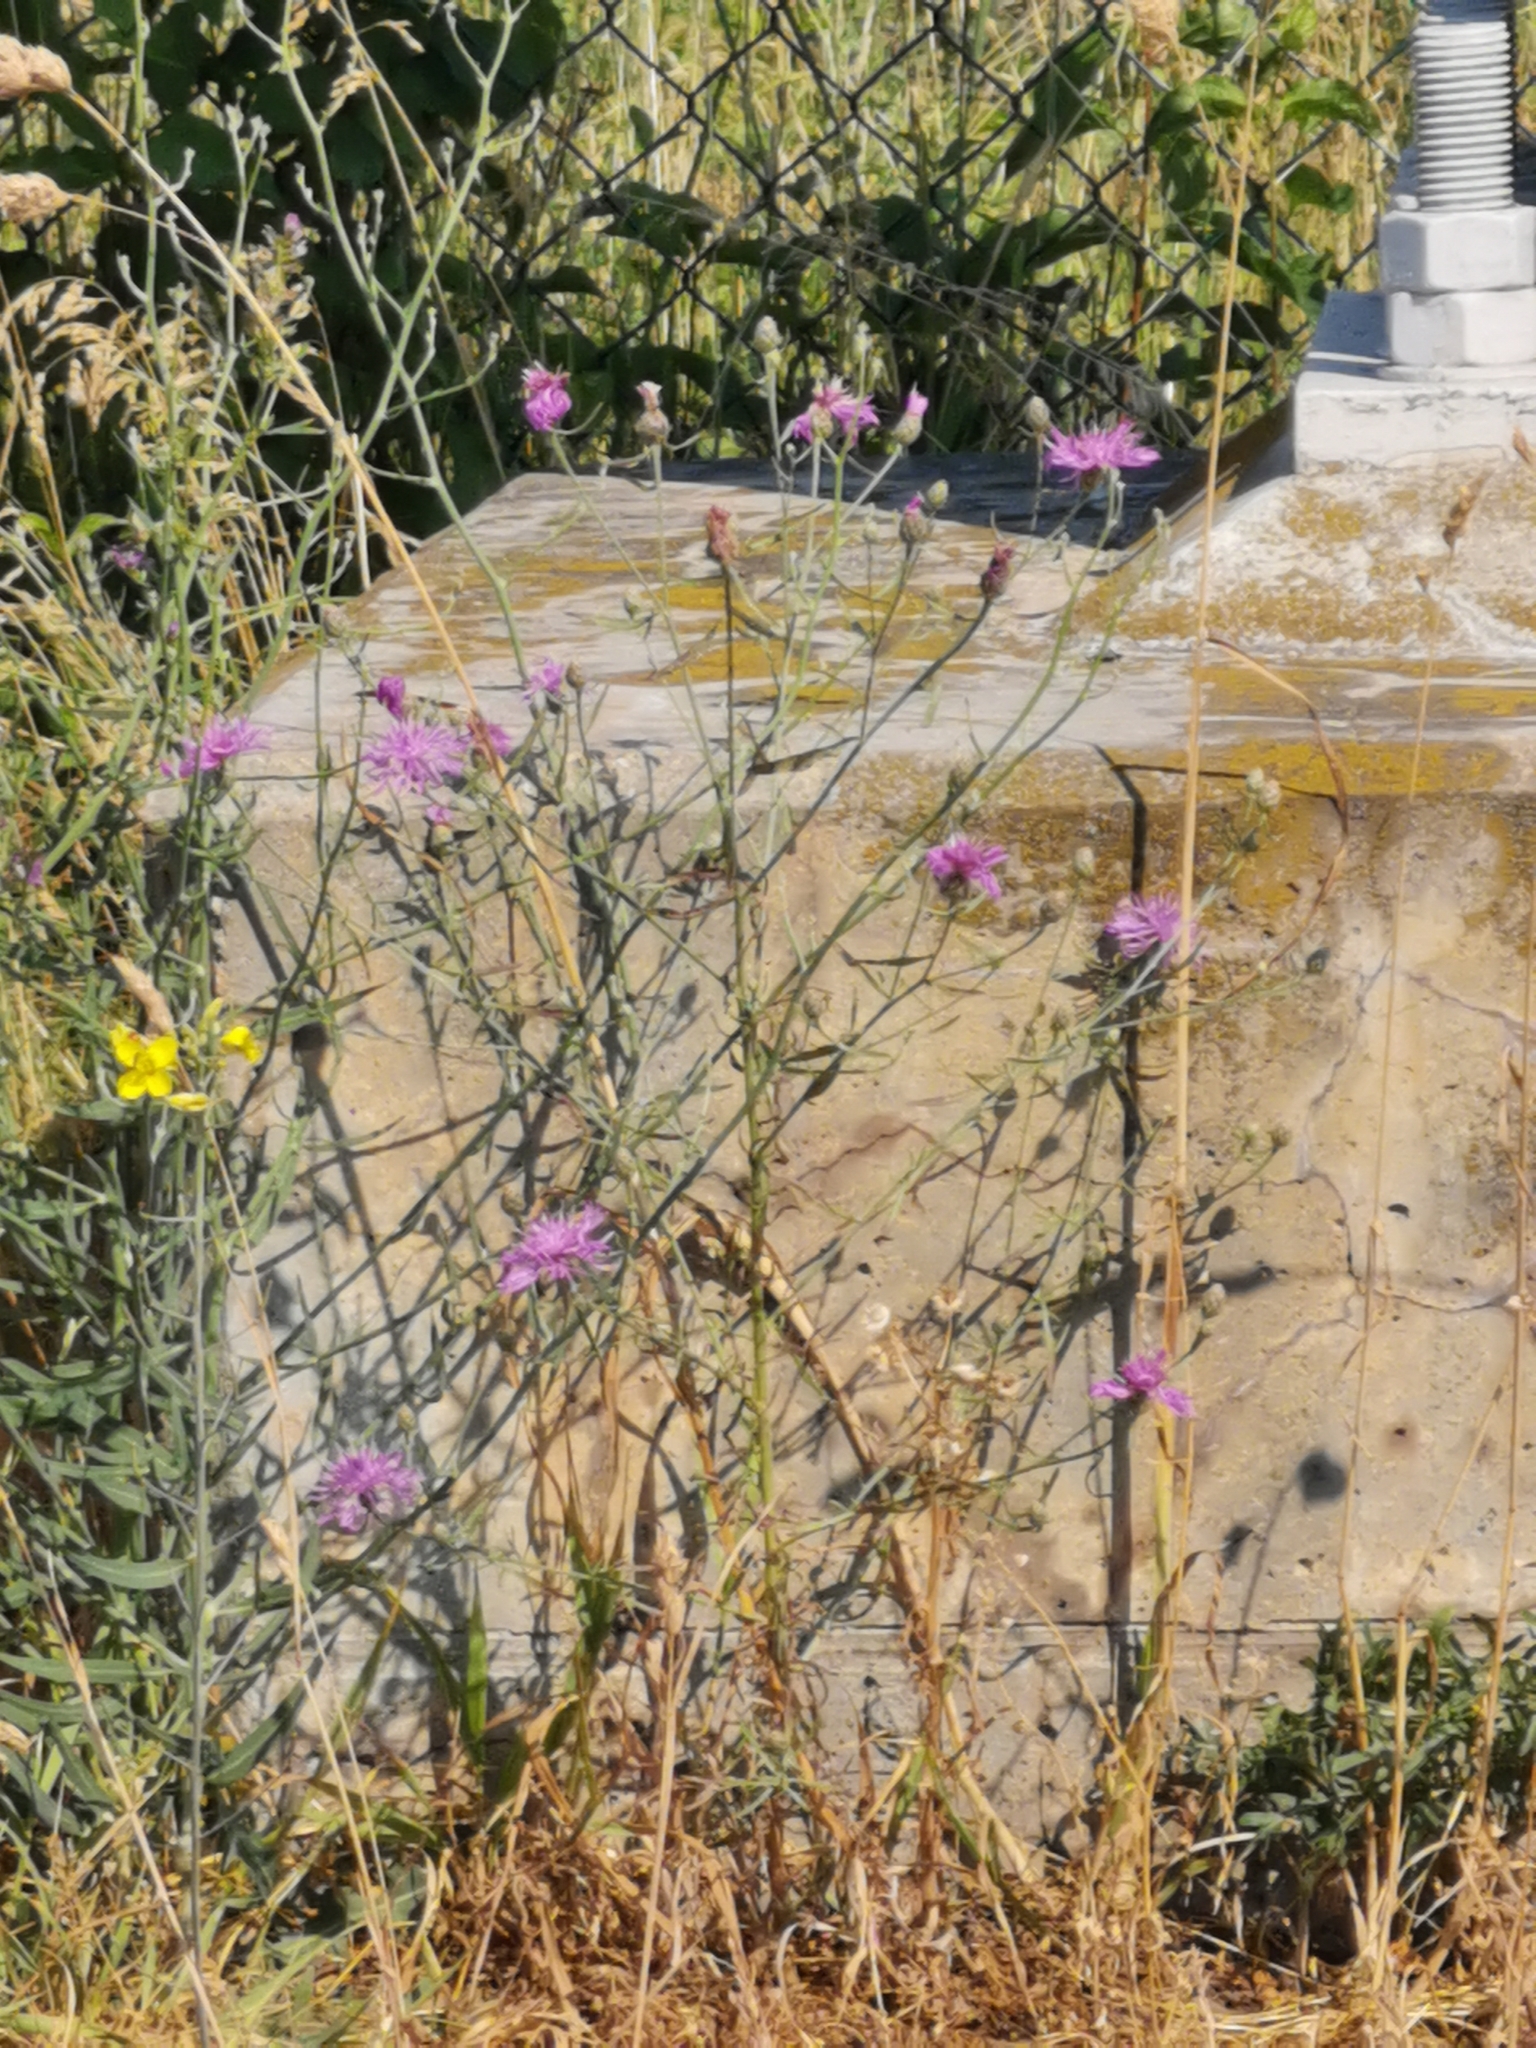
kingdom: Plantae
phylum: Tracheophyta
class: Magnoliopsida
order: Asterales
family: Asteraceae
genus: Centaurea
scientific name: Centaurea stoebe
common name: Spotted knapweed
